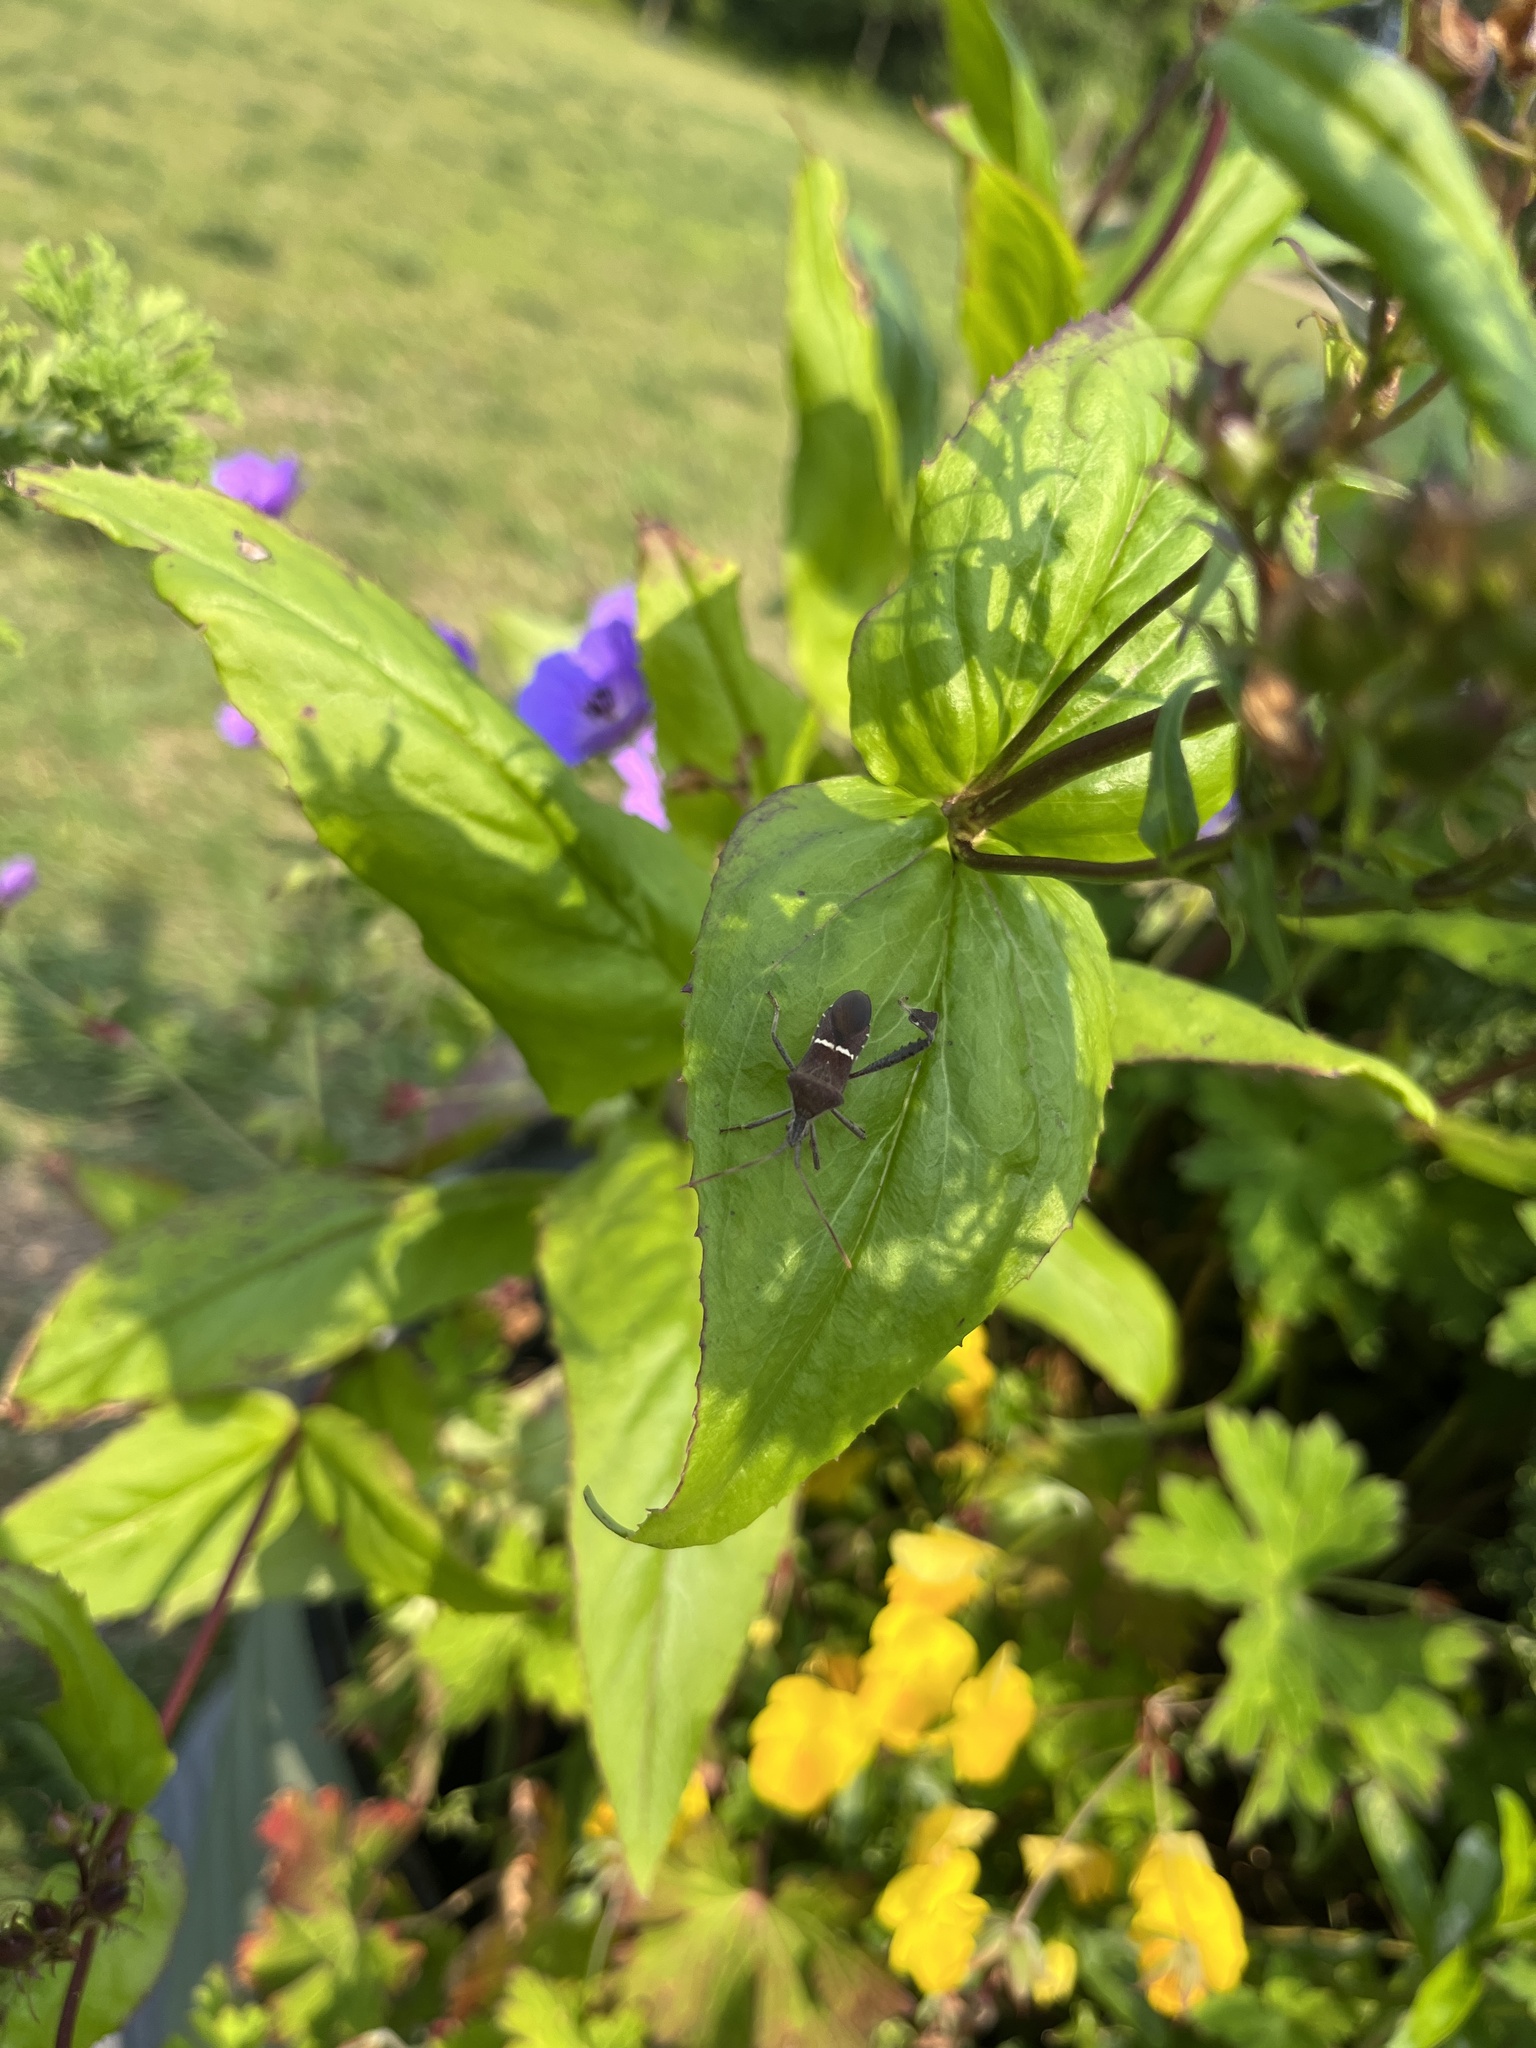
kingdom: Animalia
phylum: Arthropoda
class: Insecta
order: Hemiptera
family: Coreidae
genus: Leptoglossus
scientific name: Leptoglossus phyllopus
